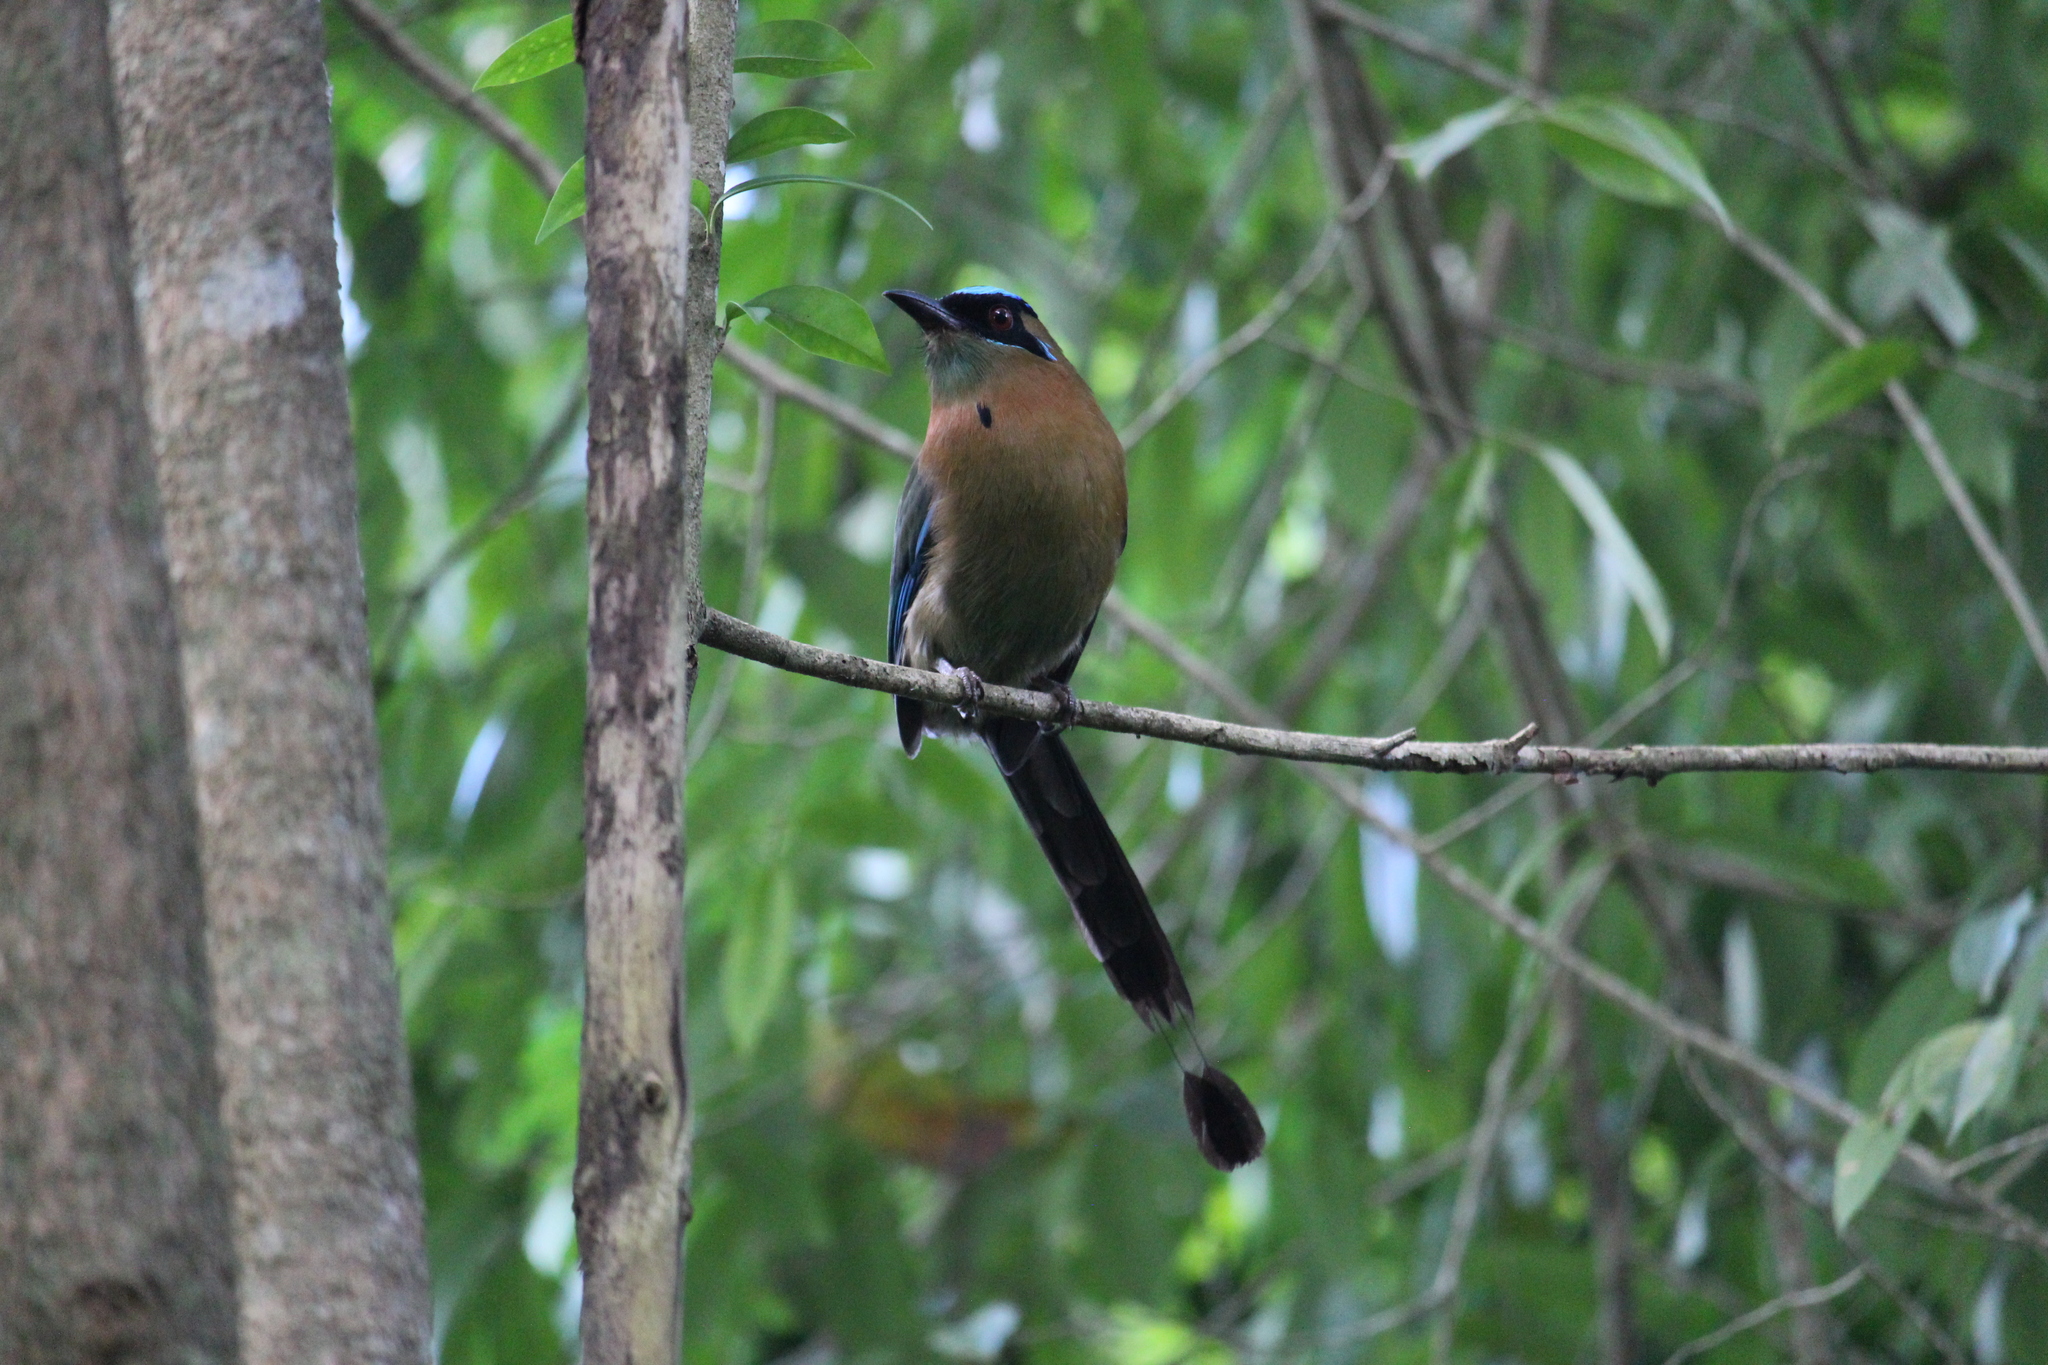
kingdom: Animalia
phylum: Chordata
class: Aves
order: Coraciiformes
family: Momotidae
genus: Momotus
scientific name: Momotus lessonii
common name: Lesson's motmot
